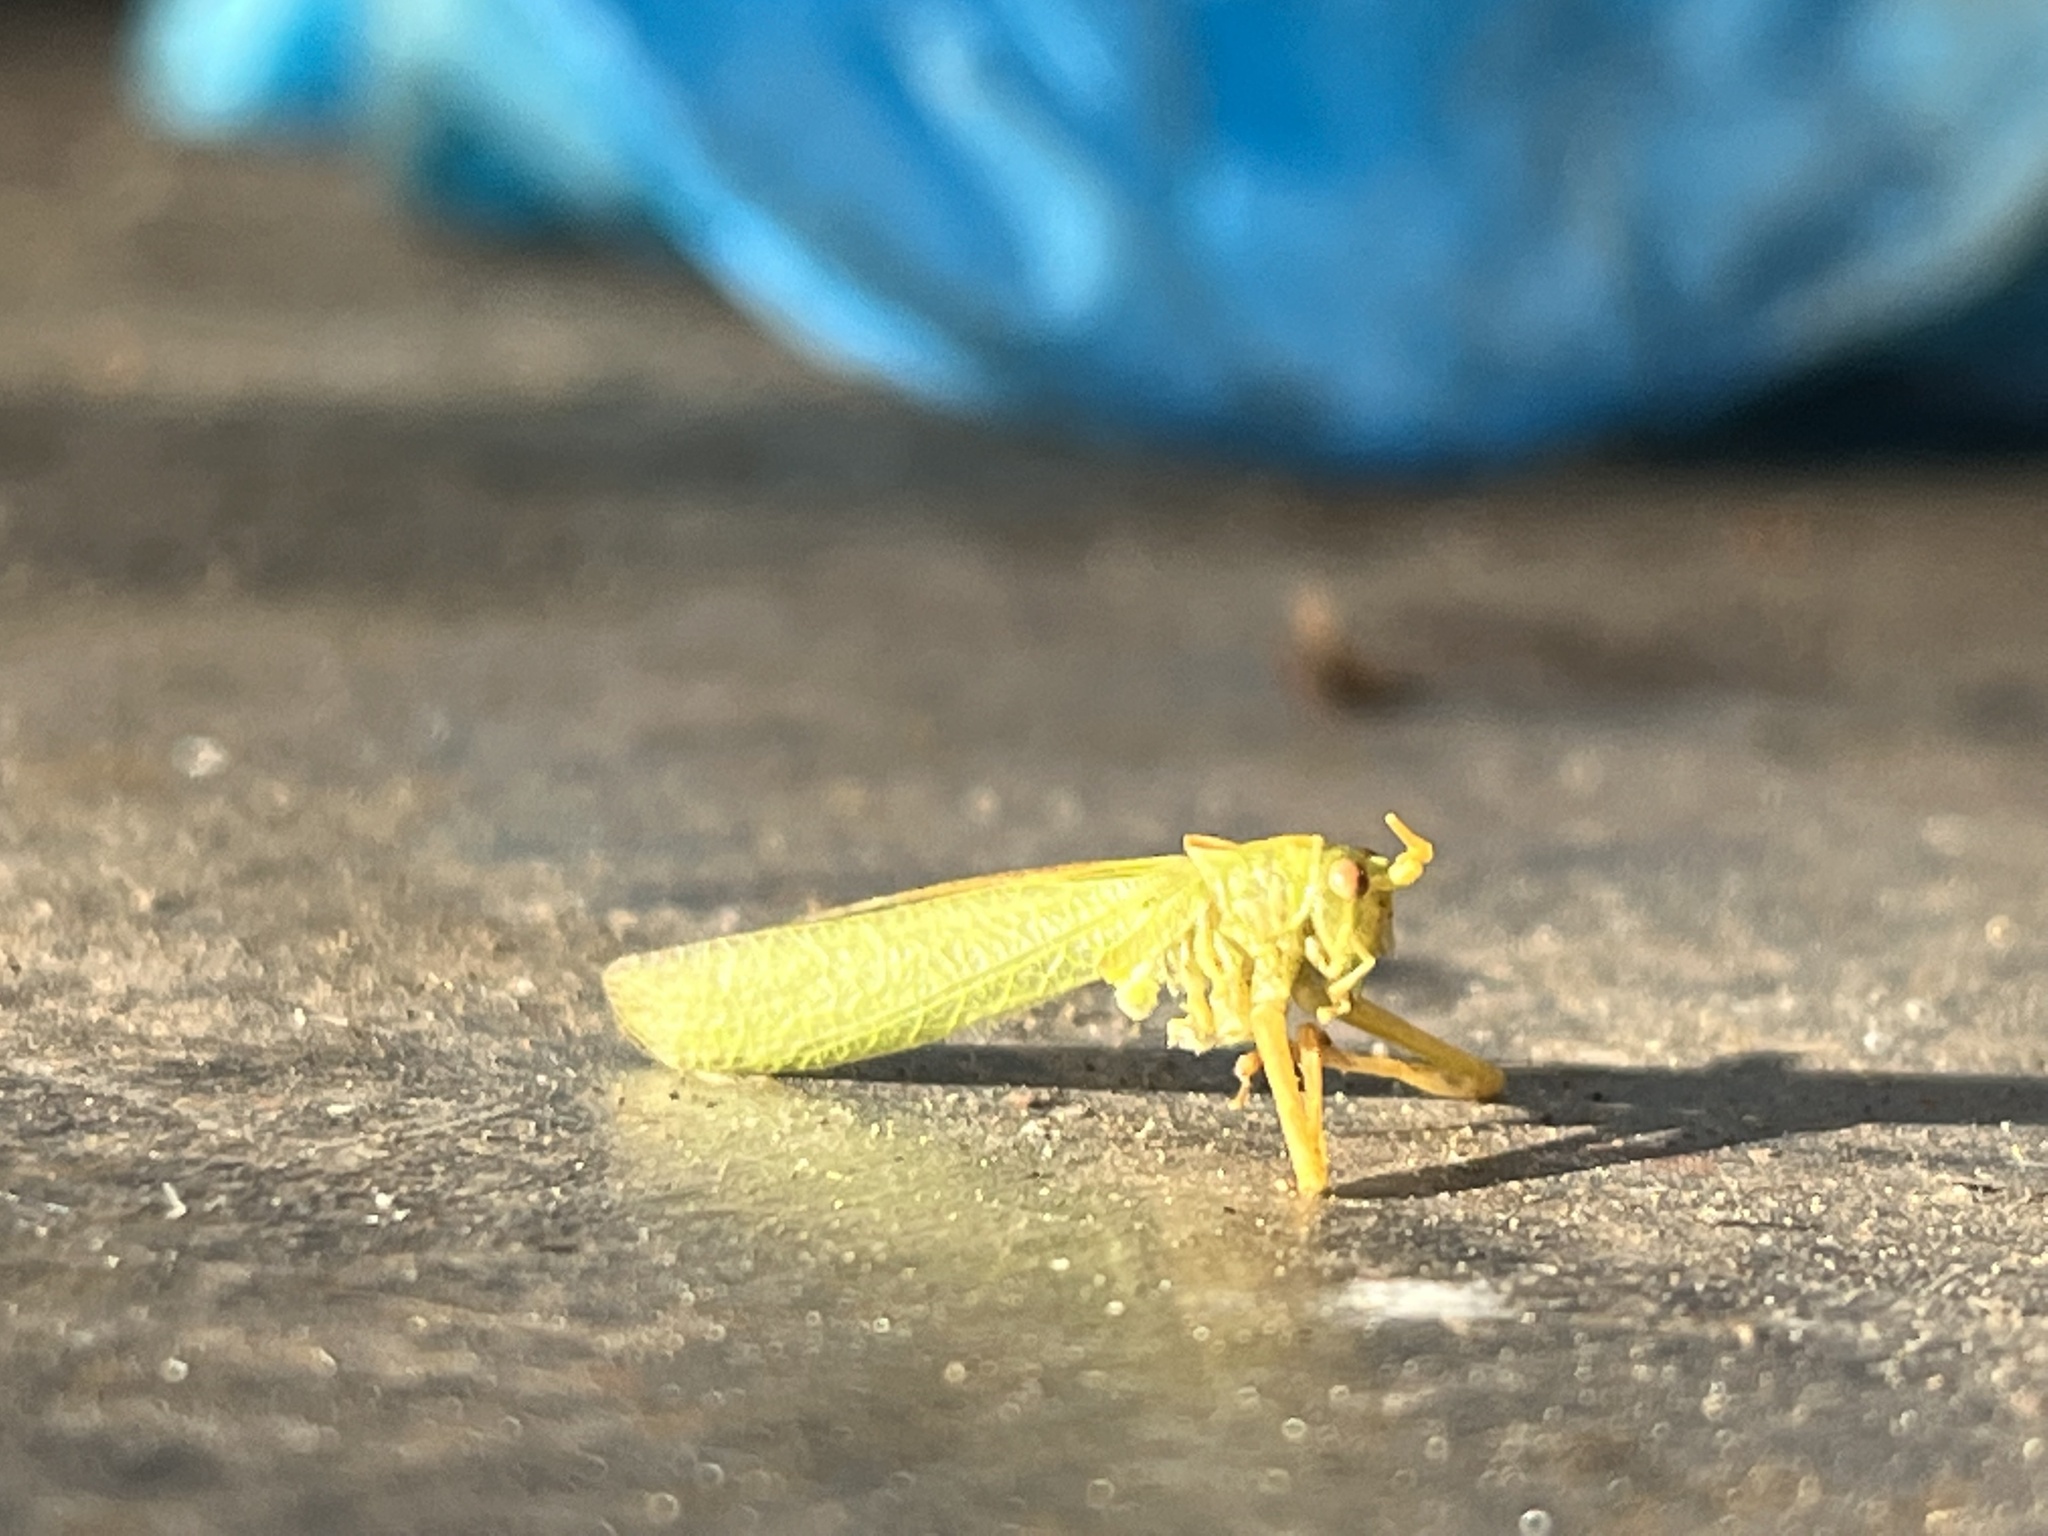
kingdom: Animalia
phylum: Arthropoda
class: Insecta
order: Orthoptera
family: Tettigoniidae
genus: Meconema
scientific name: Meconema thalassinum
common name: Oak bush-cricket
